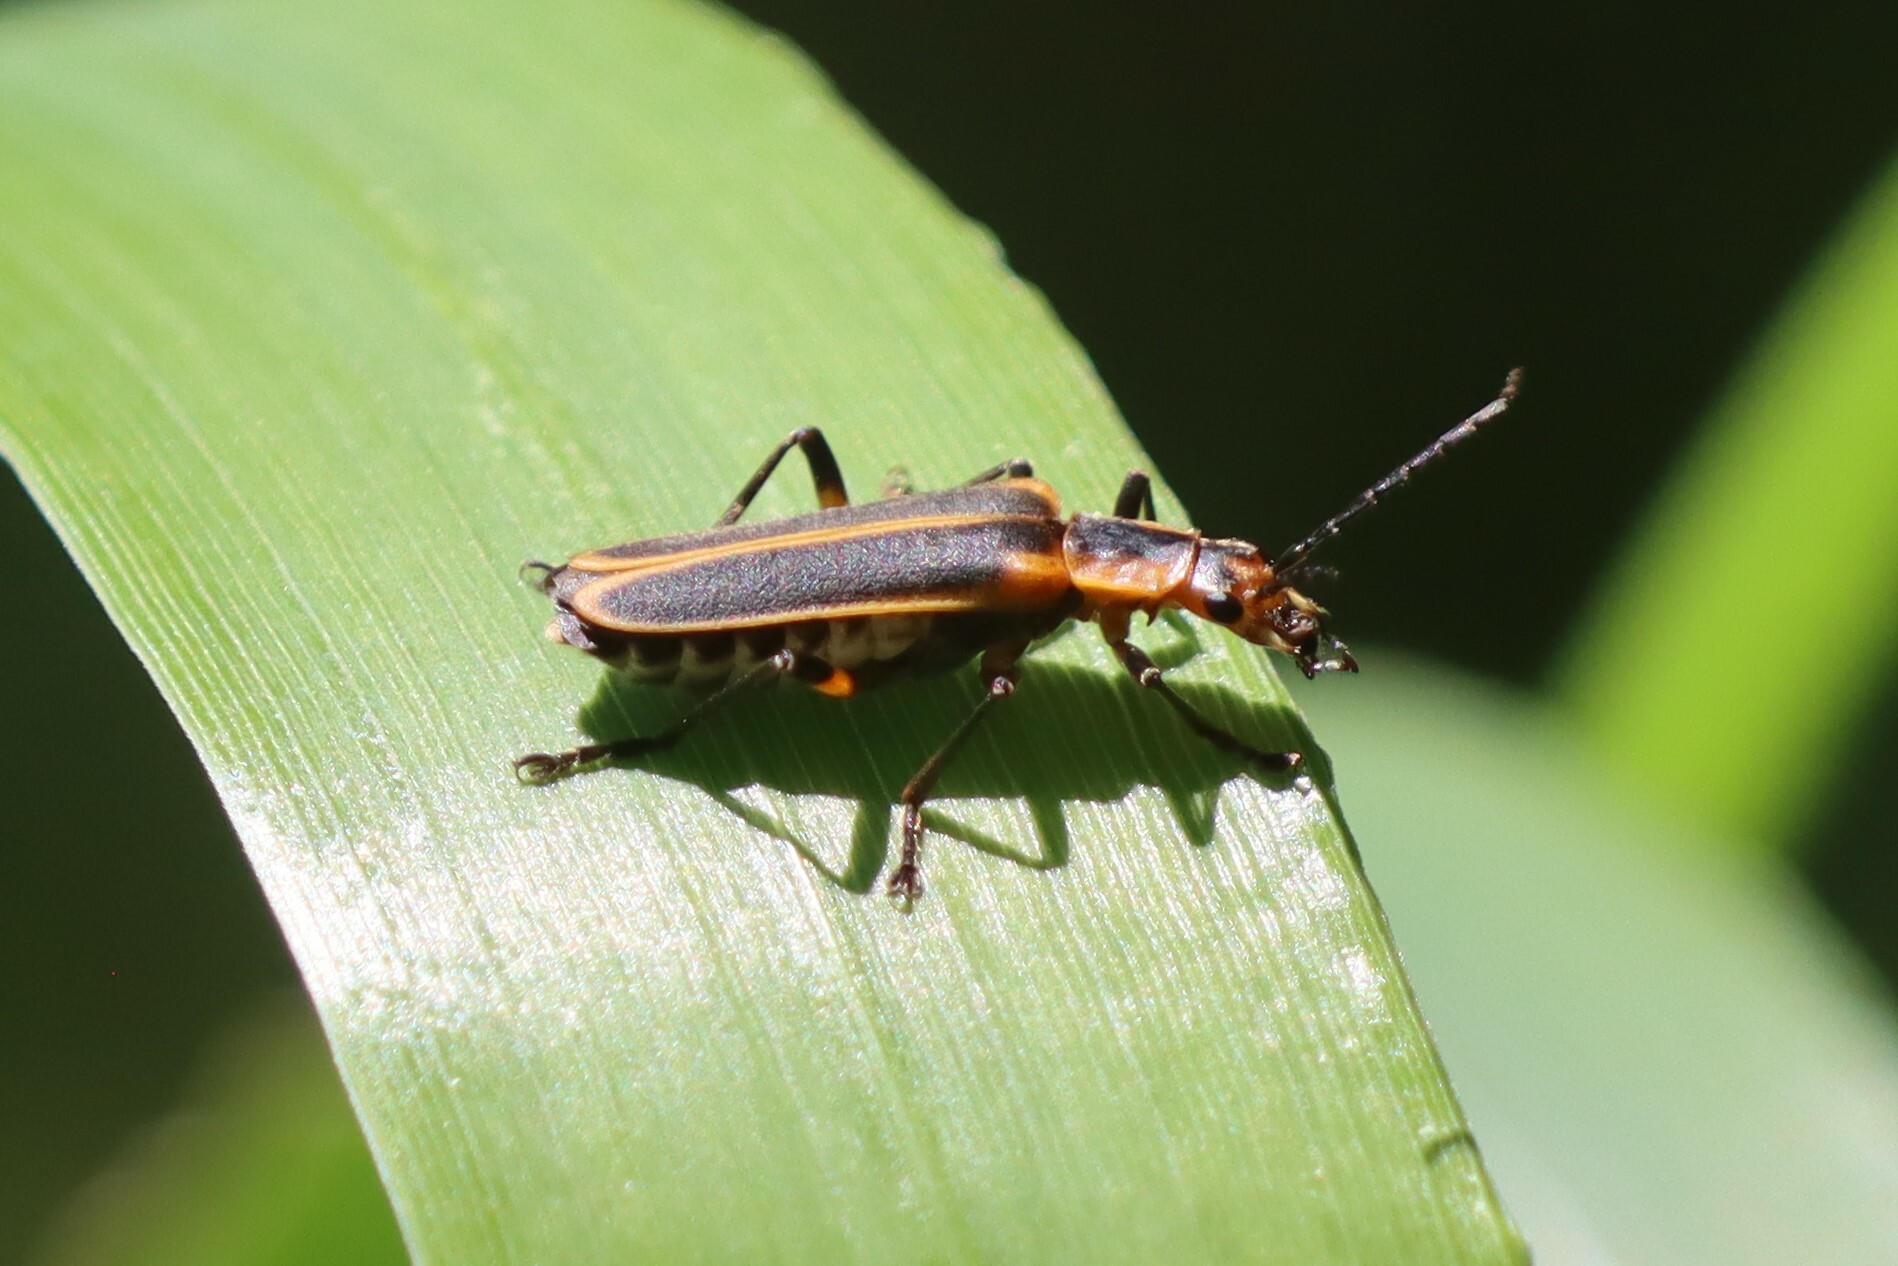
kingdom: Animalia
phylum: Arthropoda
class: Insecta
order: Coleoptera
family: Cantharidae
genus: Chauliognathus
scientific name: Chauliognathus marginatus
